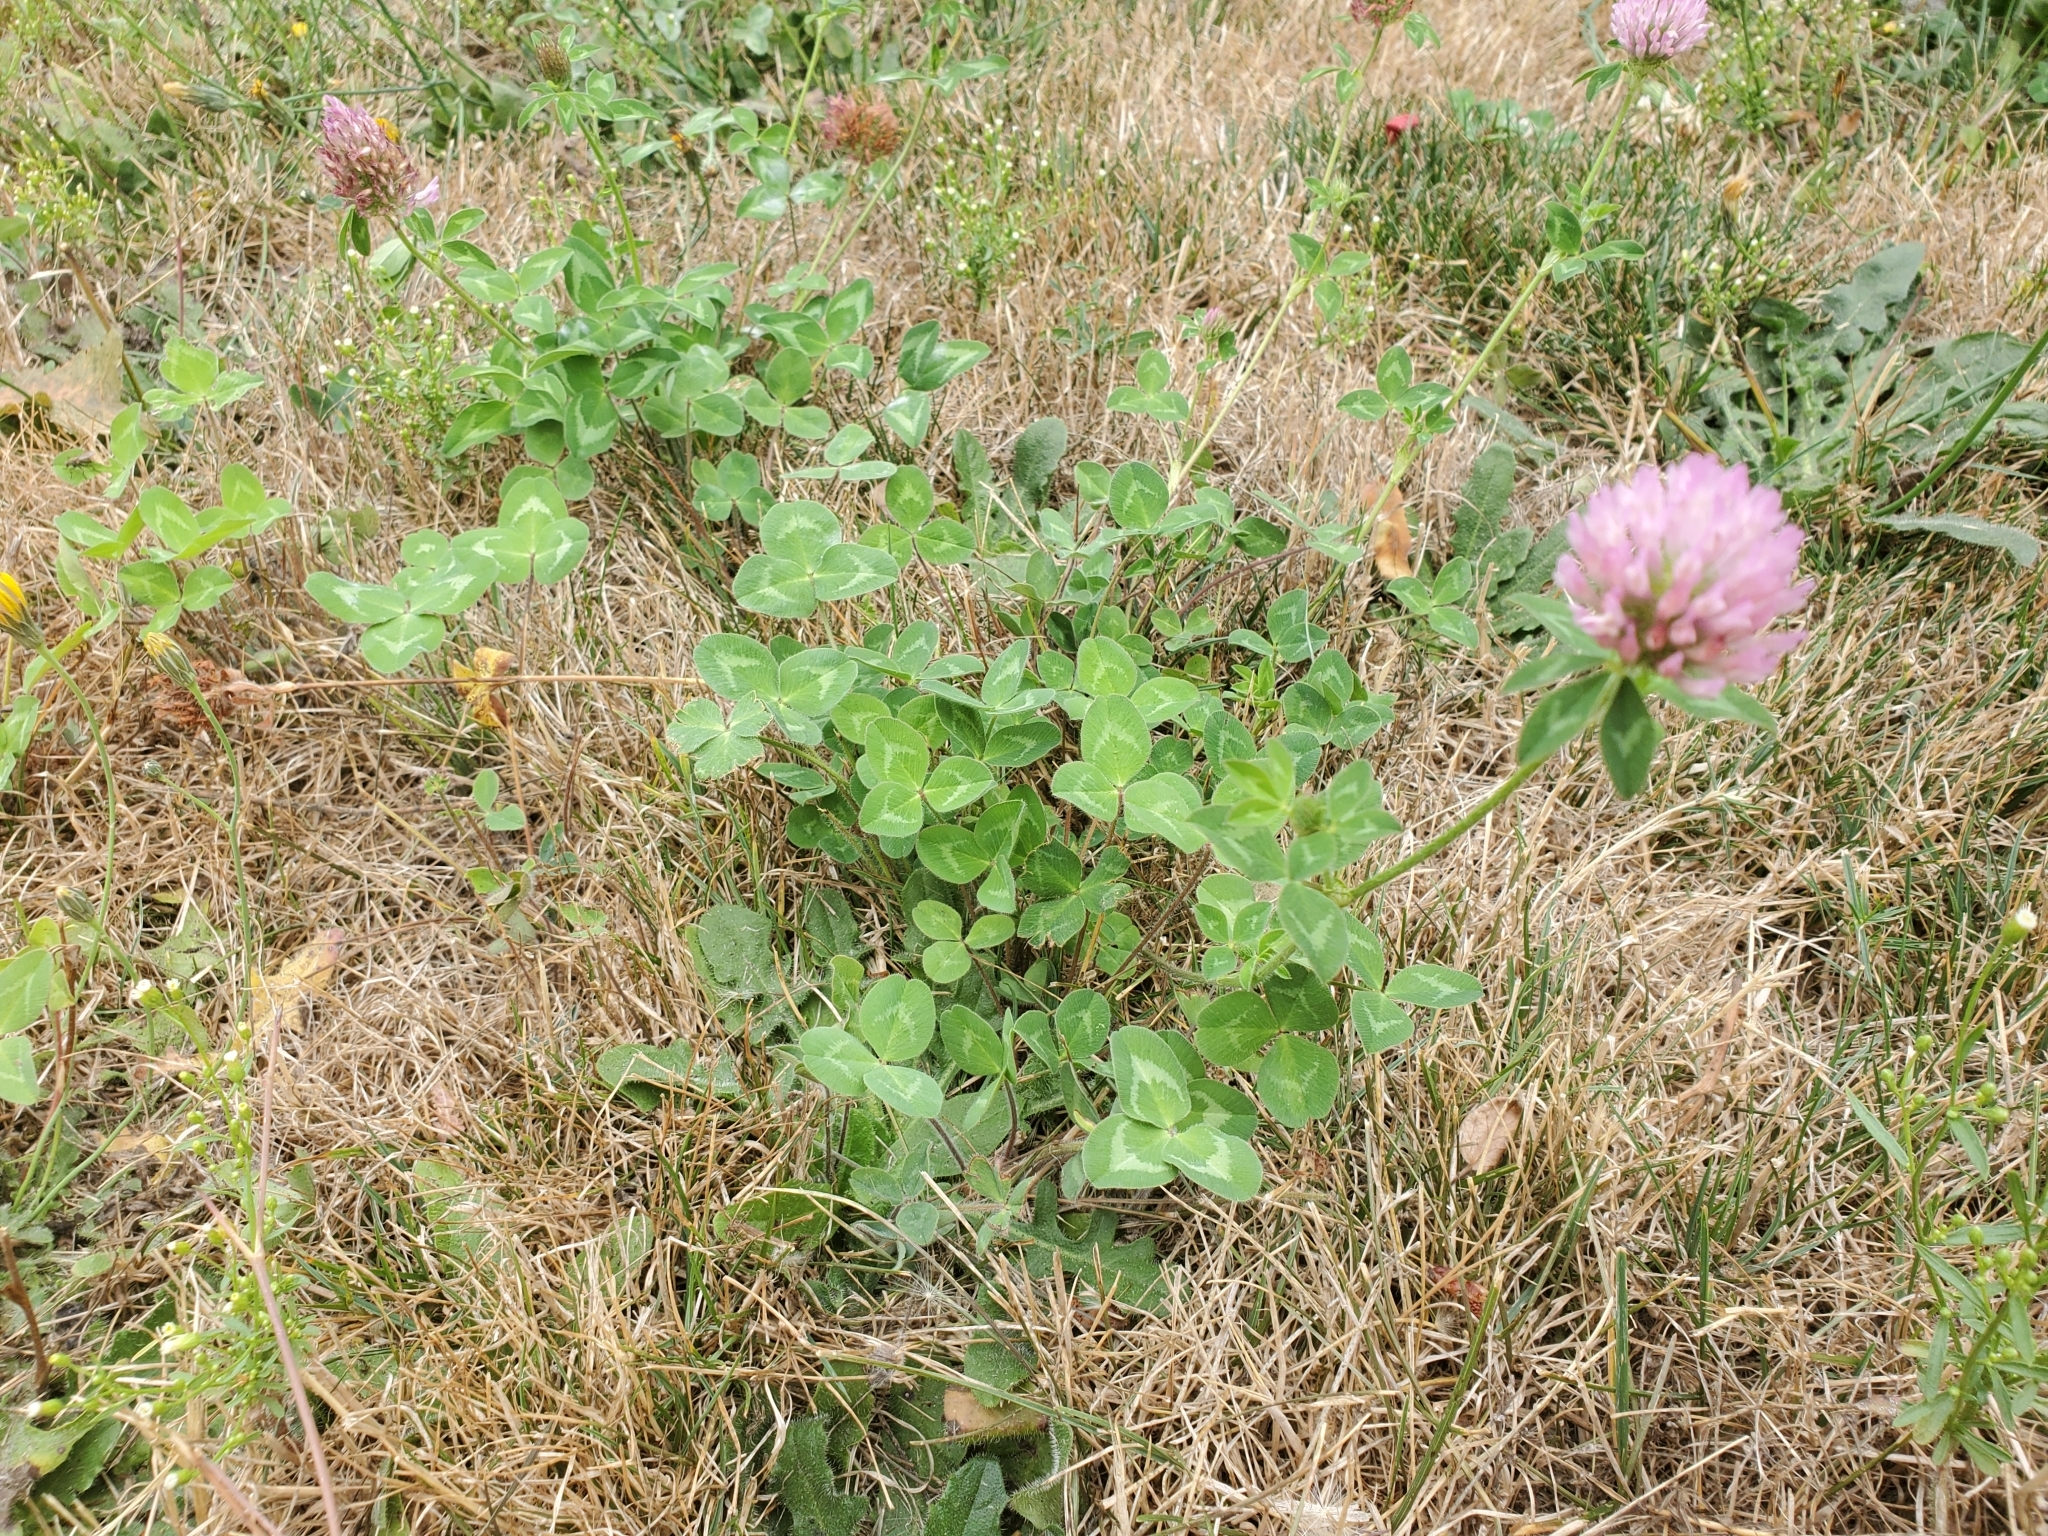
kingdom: Plantae
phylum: Tracheophyta
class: Magnoliopsida
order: Fabales
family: Fabaceae
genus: Trifolium
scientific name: Trifolium pratense
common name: Red clover
